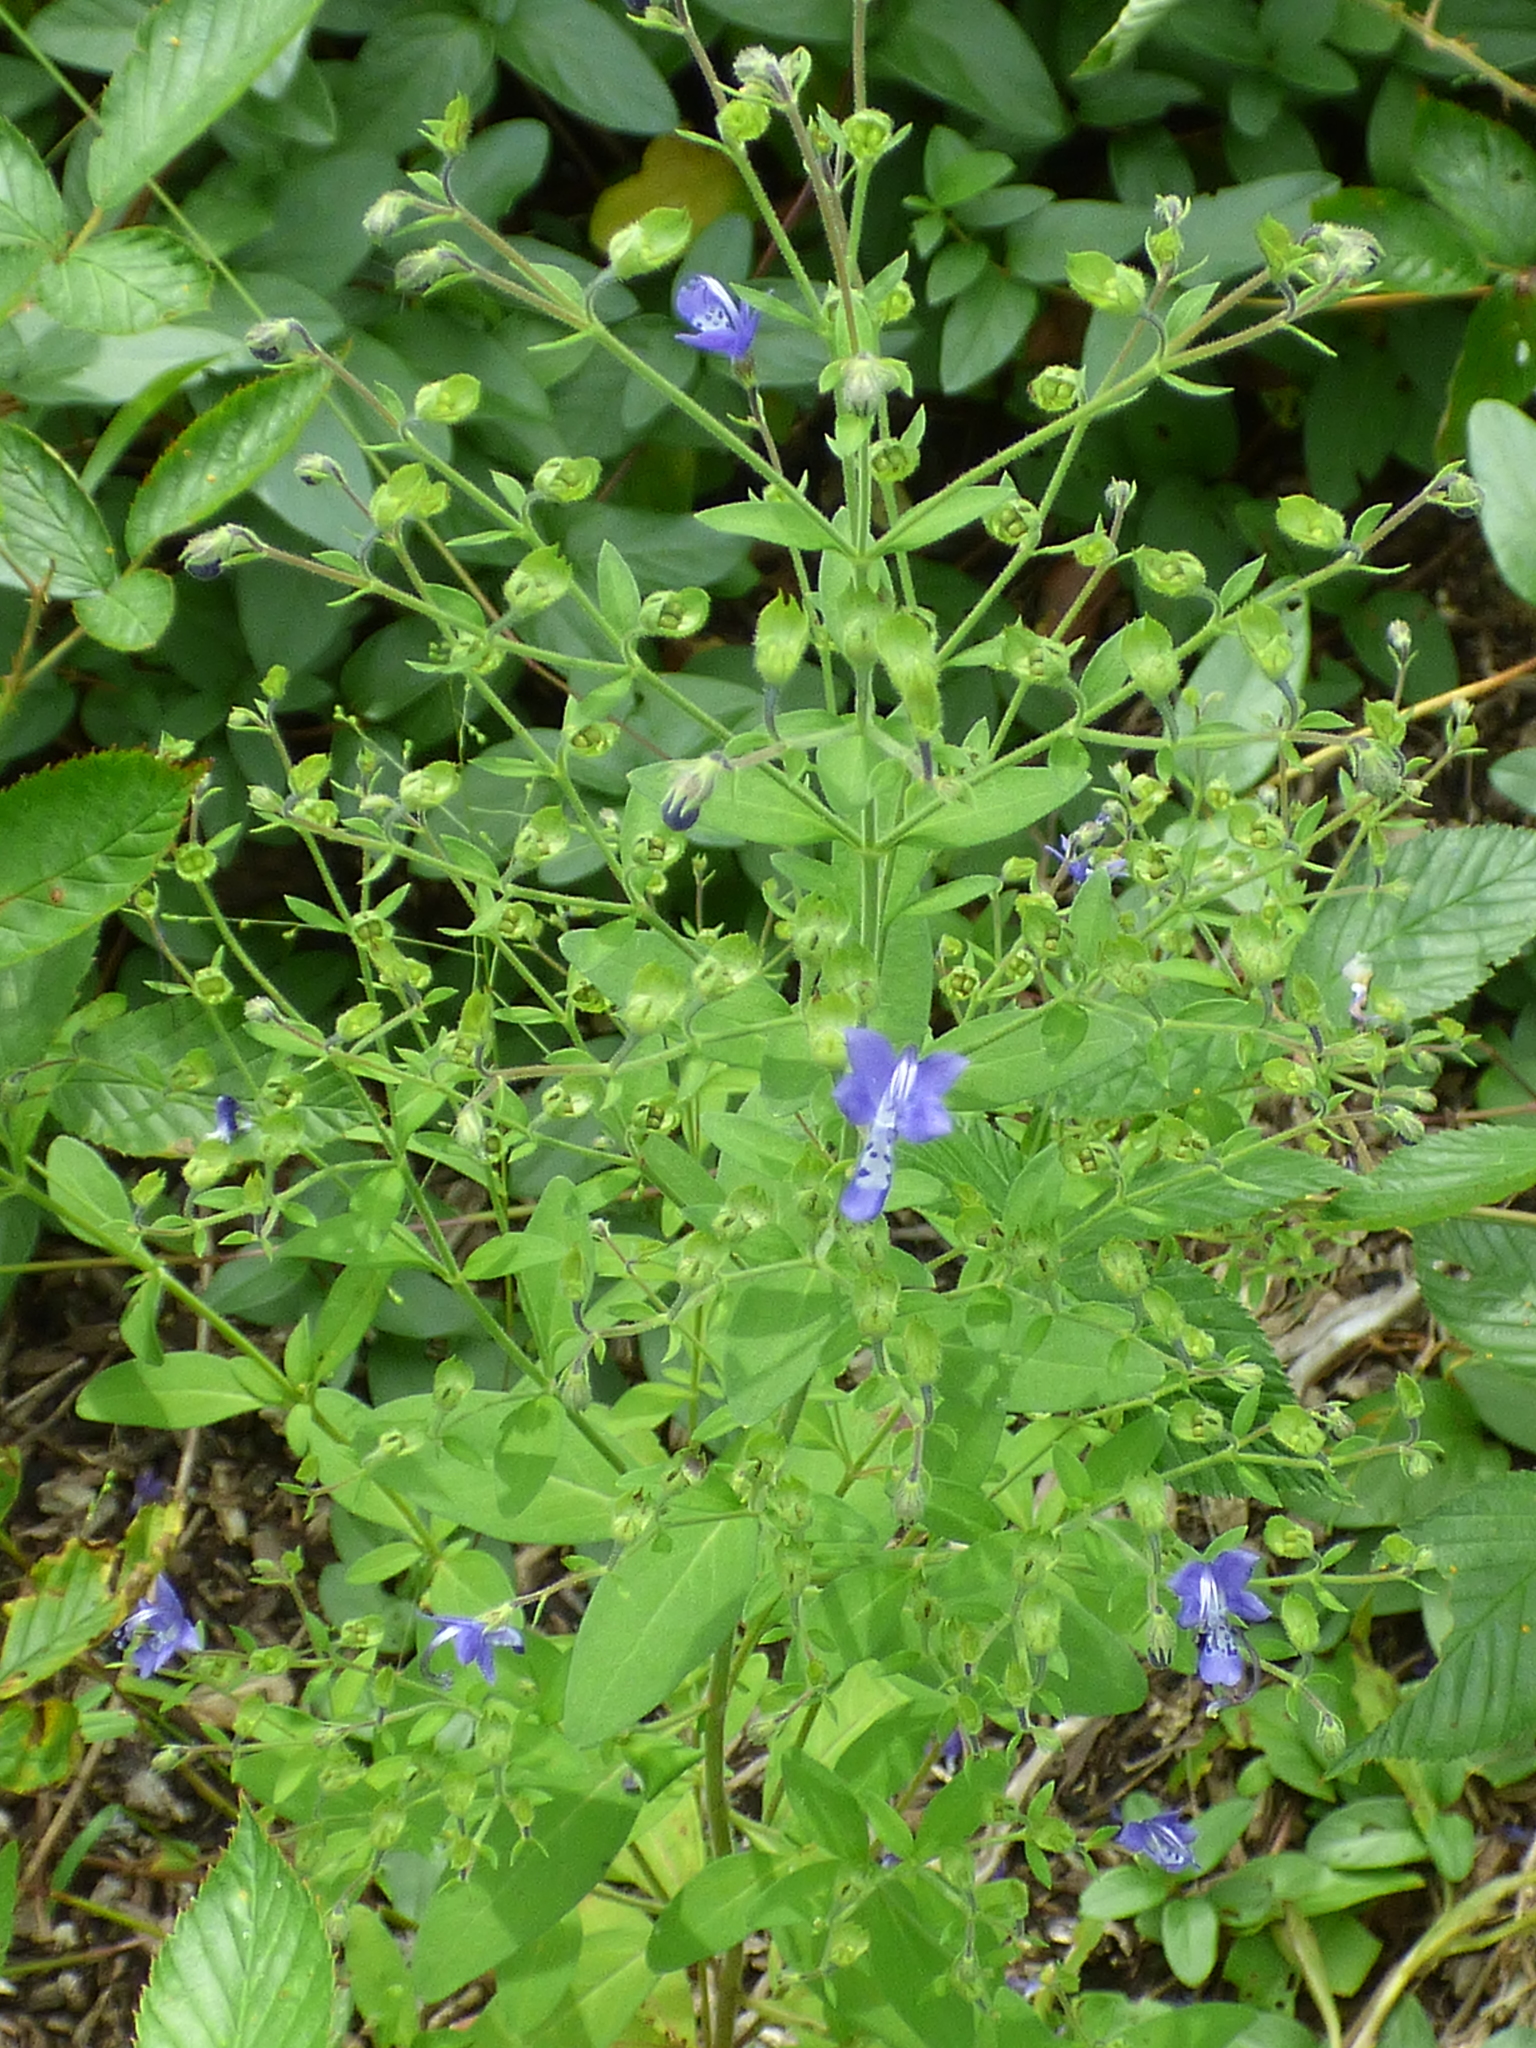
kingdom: Plantae
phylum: Tracheophyta
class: Magnoliopsida
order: Lamiales
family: Lamiaceae
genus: Trichostema
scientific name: Trichostema dichotomum
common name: Bastard pennyroyal
